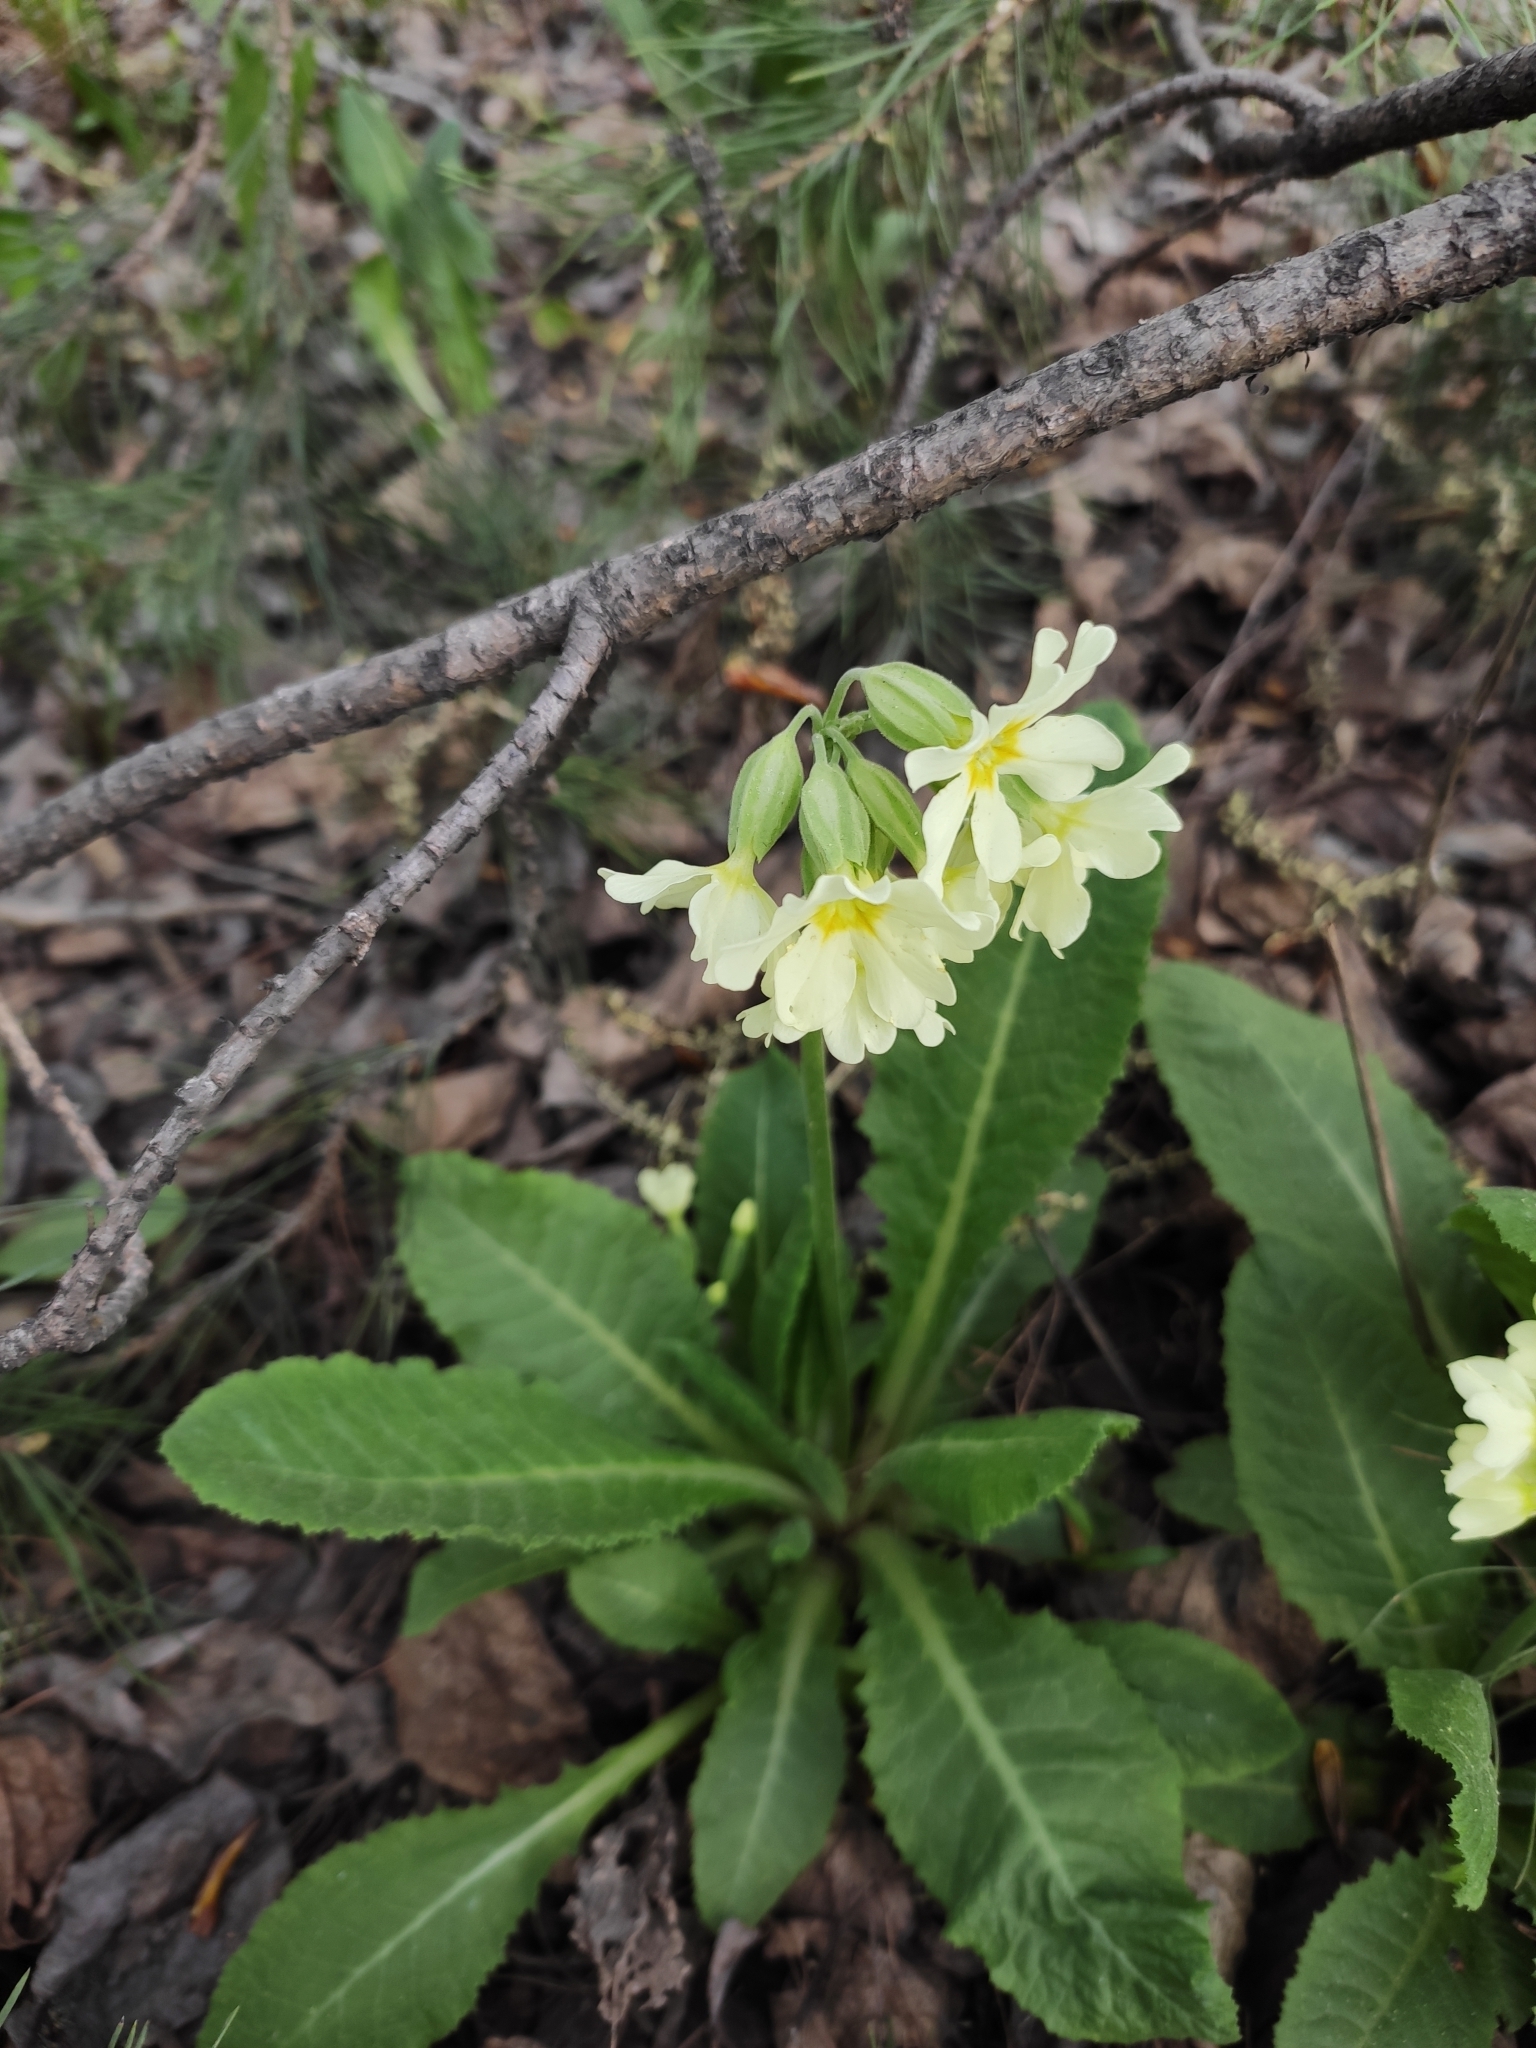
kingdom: Plantae
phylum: Tracheophyta
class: Magnoliopsida
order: Ericales
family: Primulaceae
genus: Primula
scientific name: Primula elatior
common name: Oxlip
